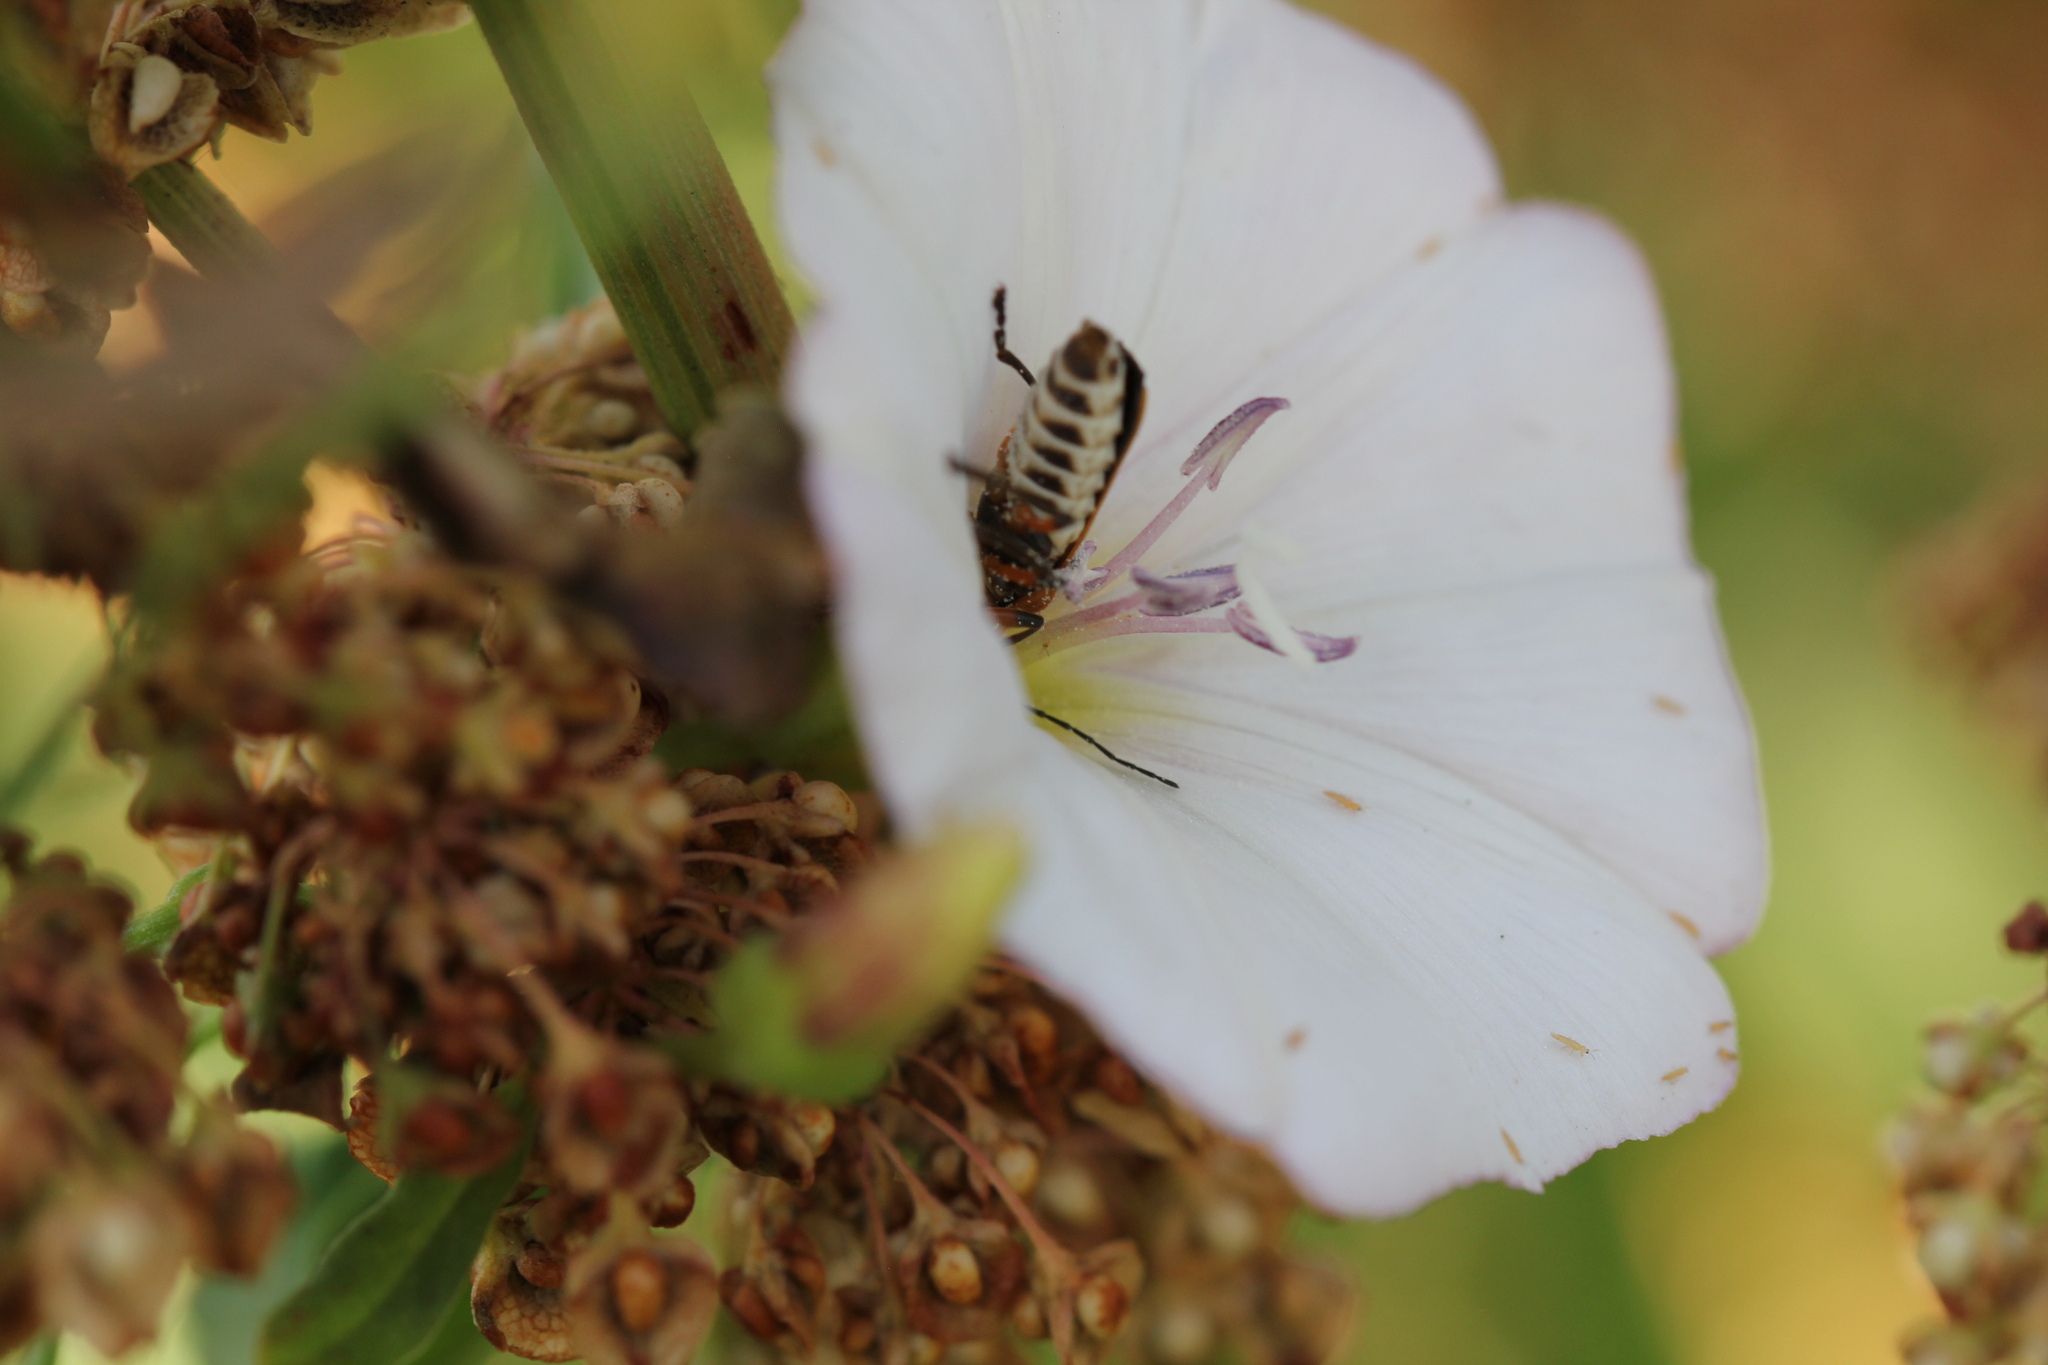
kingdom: Animalia
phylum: Arthropoda
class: Insecta
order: Coleoptera
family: Cantharidae
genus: Chauliognathus
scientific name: Chauliognathus marginatus
